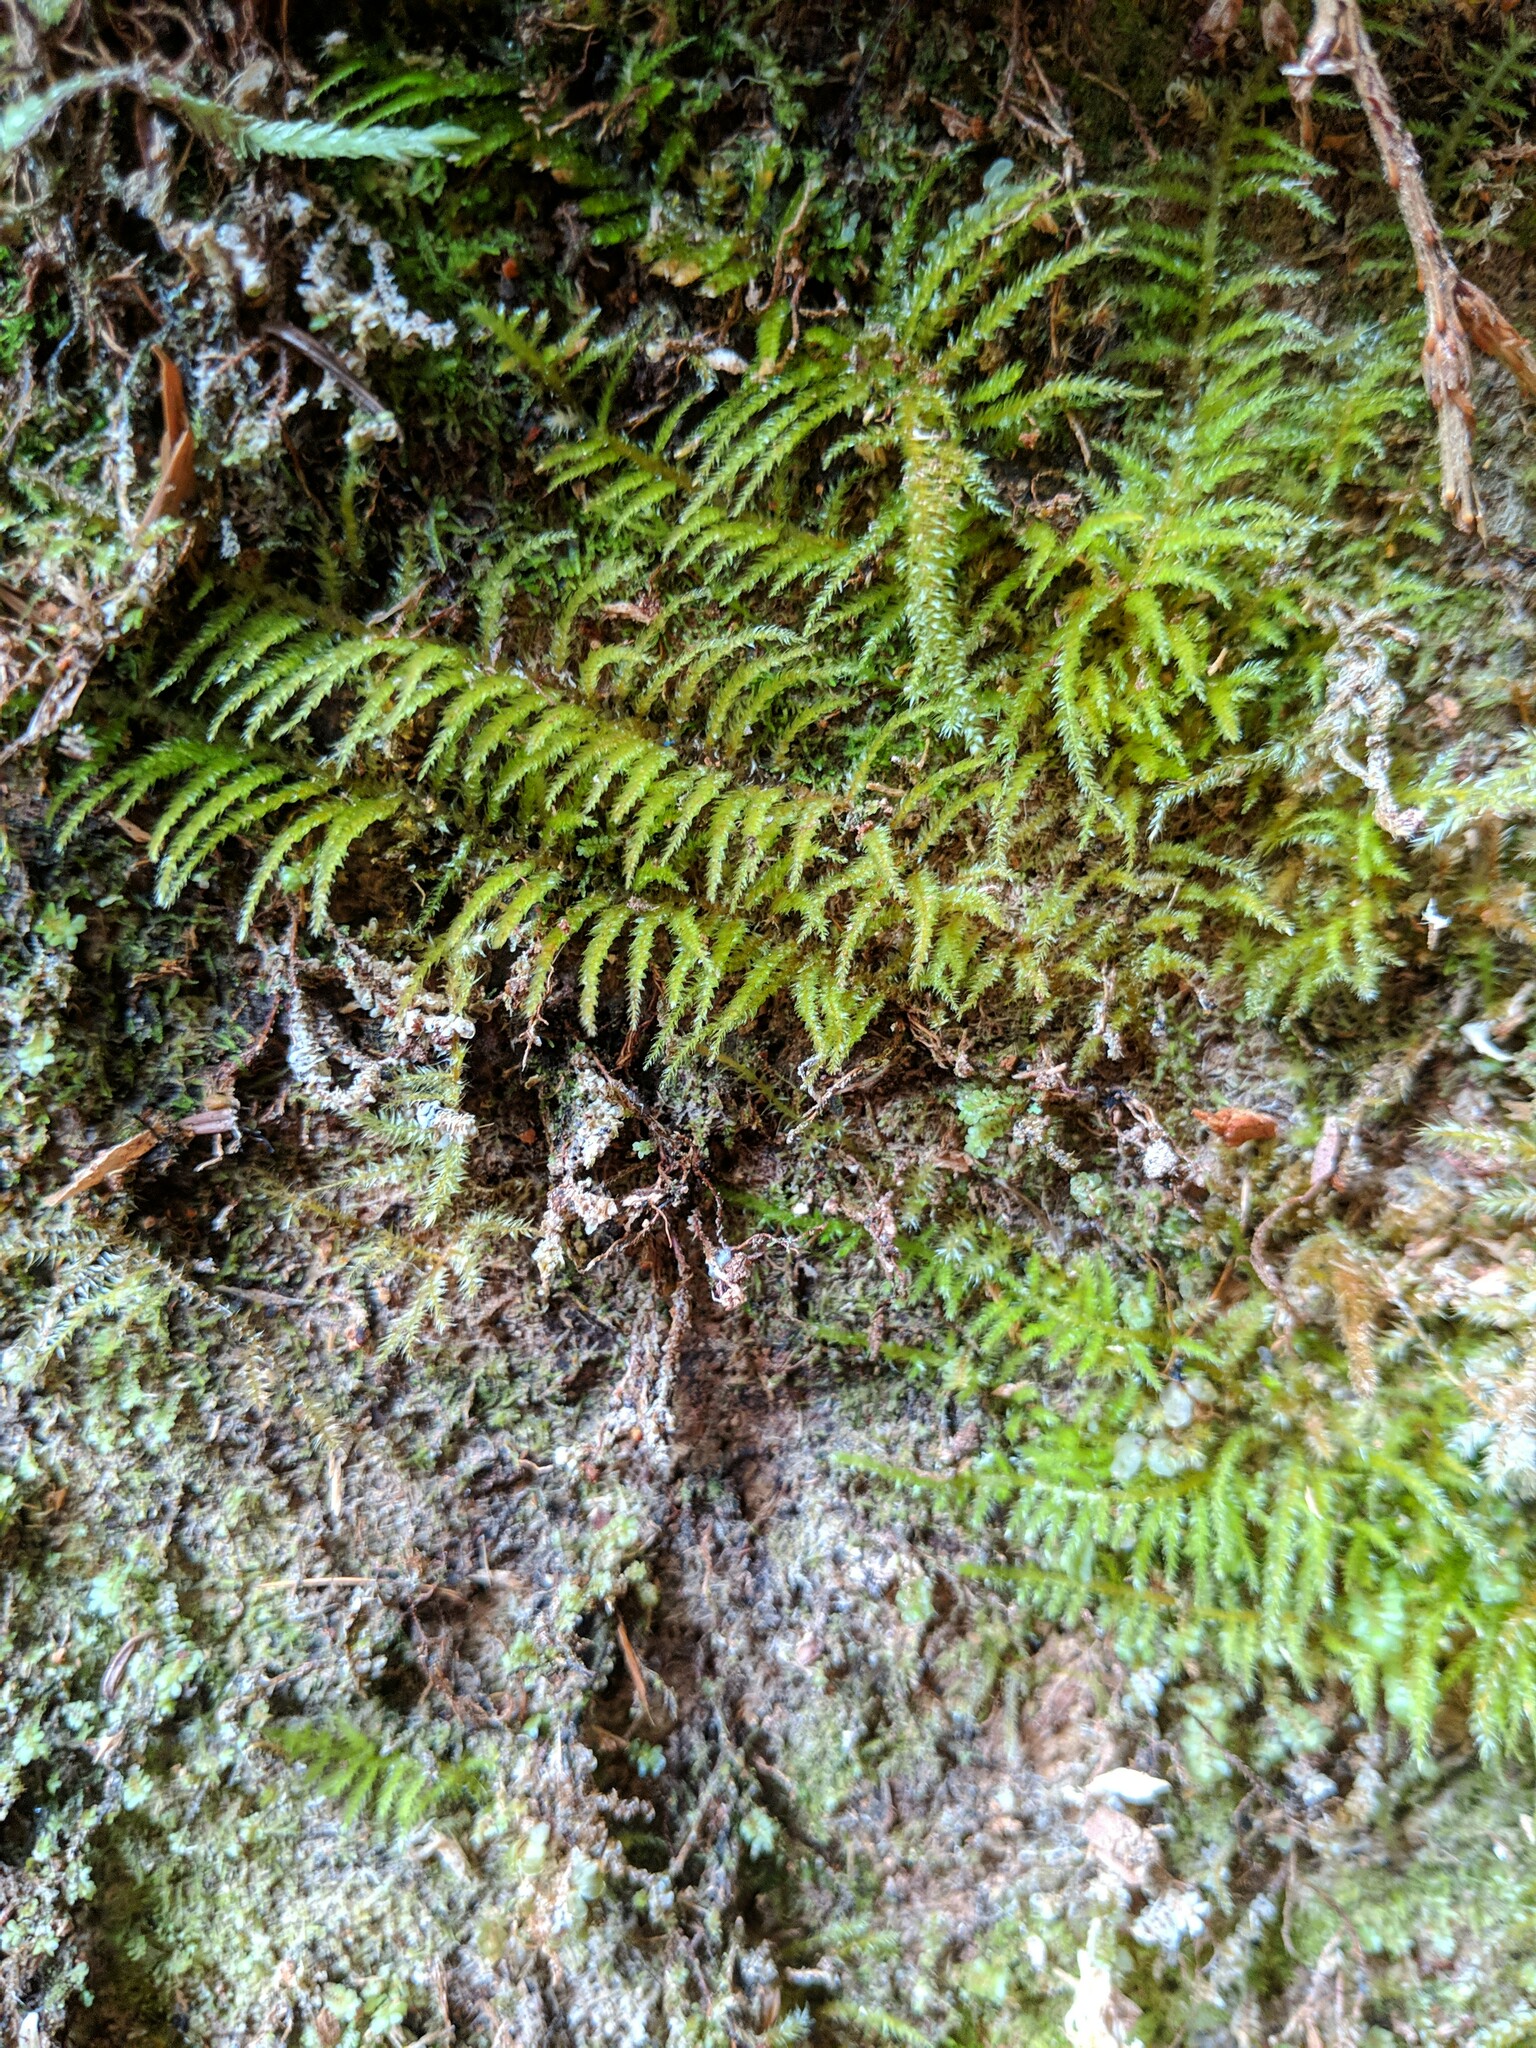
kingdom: Plantae
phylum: Bryophyta
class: Bryopsida
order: Hypnales
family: Brachytheciaceae
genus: Kindbergia
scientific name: Kindbergia oregana
